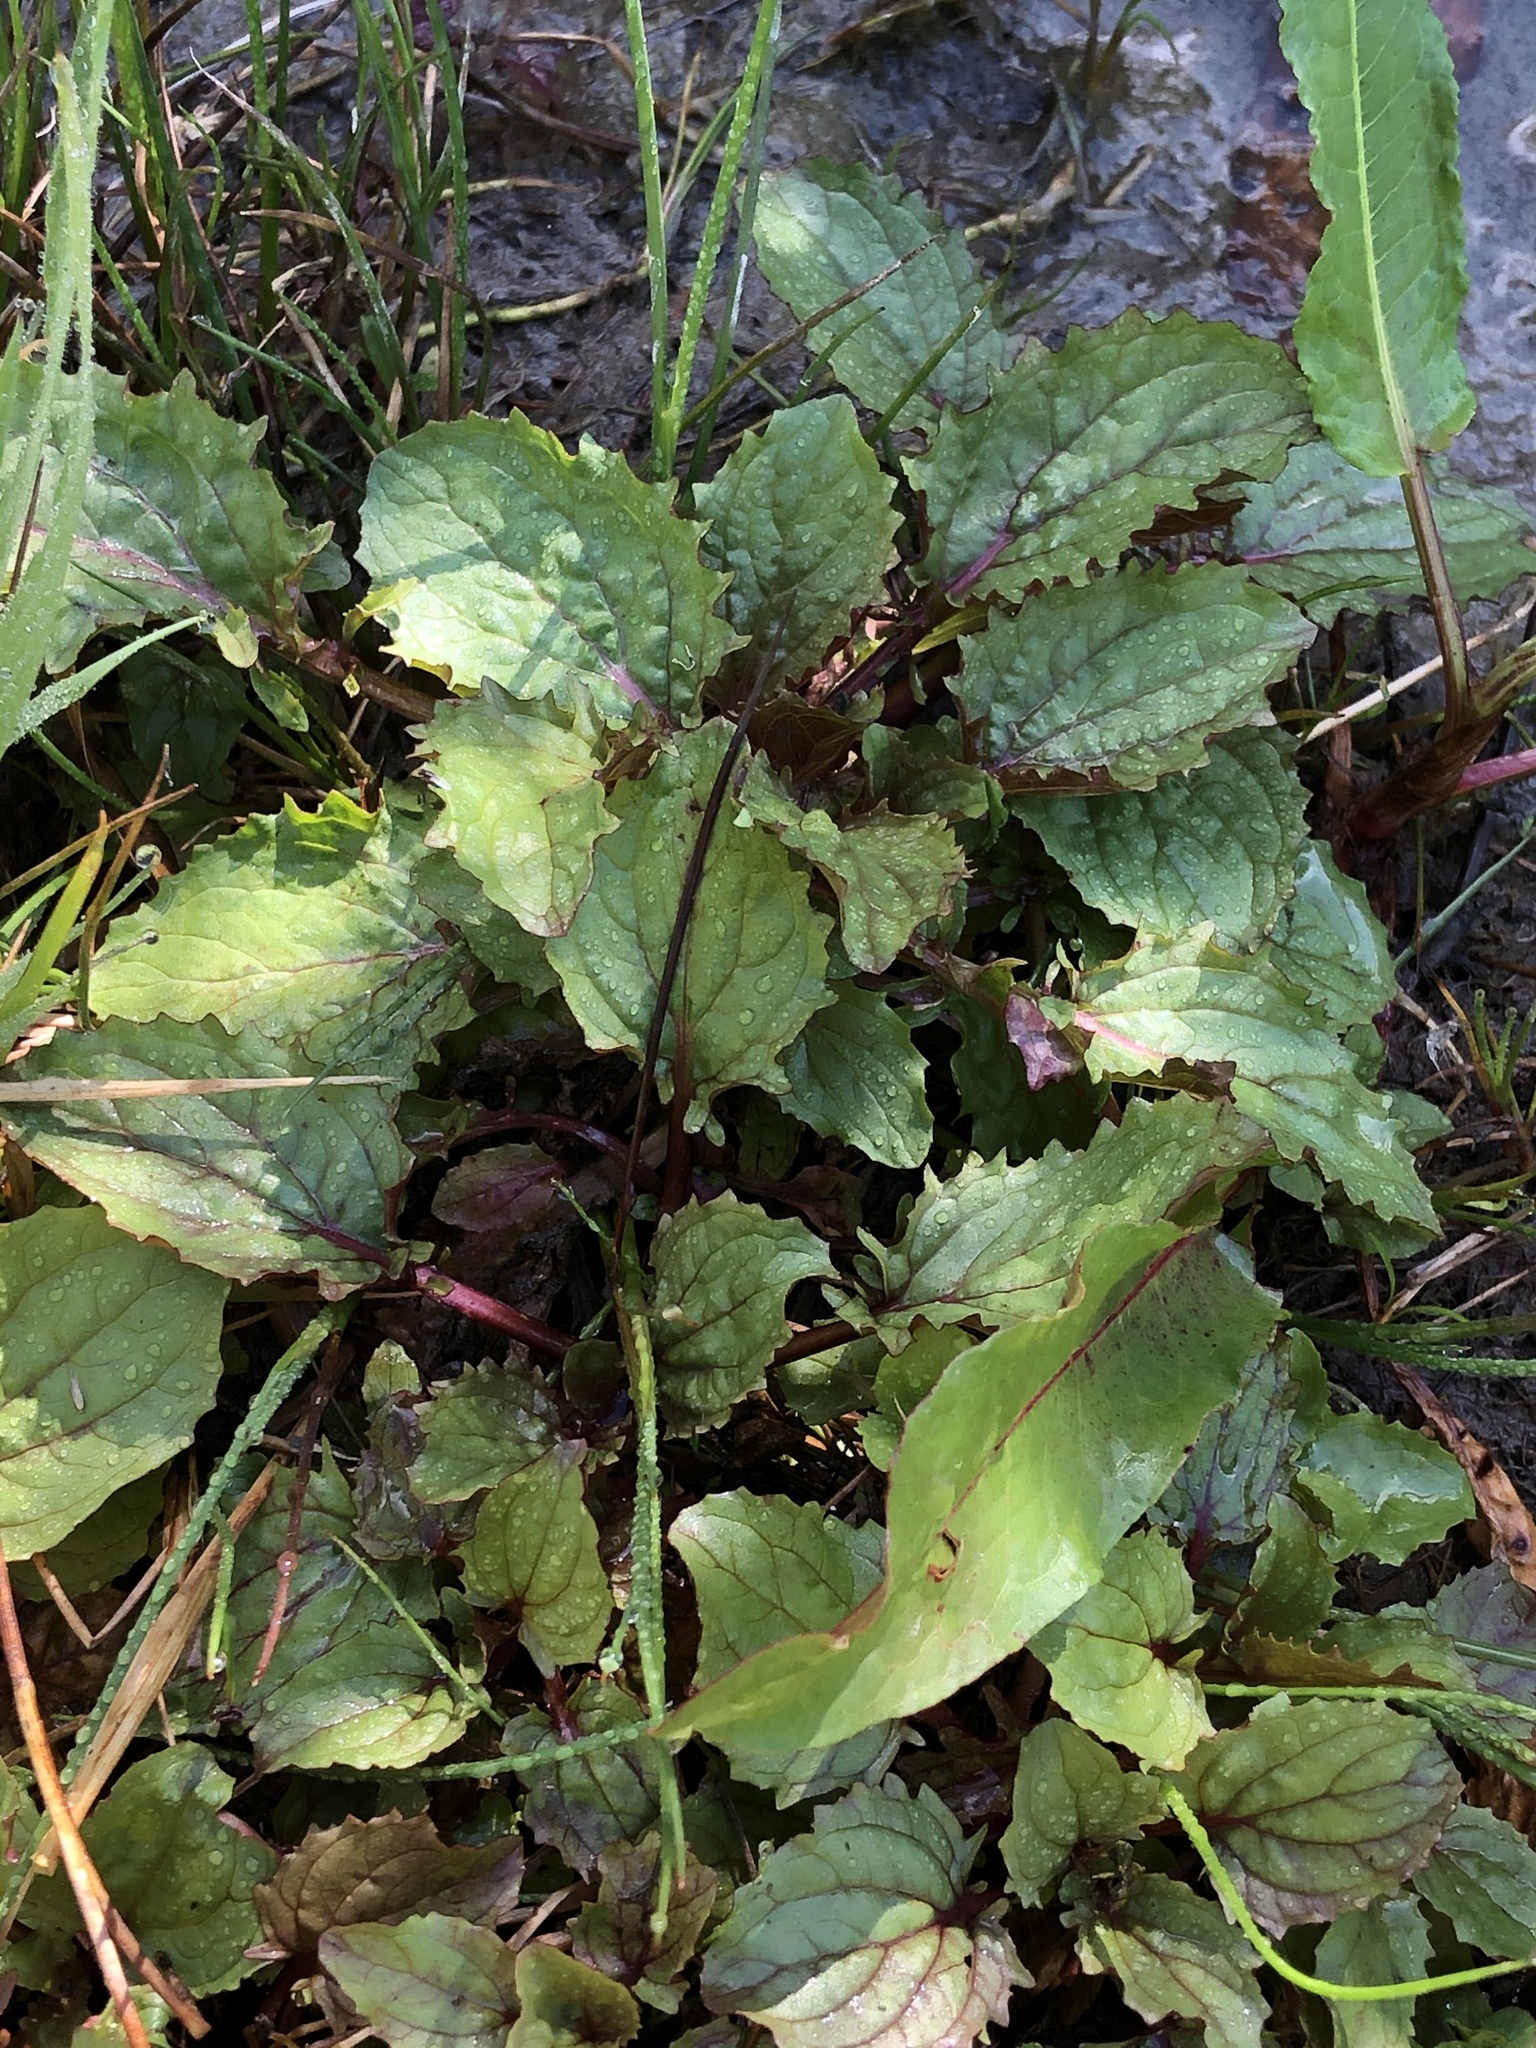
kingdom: Plantae
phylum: Tracheophyta
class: Magnoliopsida
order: Lamiales
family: Phrymaceae
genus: Erythranthe
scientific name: Erythranthe guttata
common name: Monkeyflower
